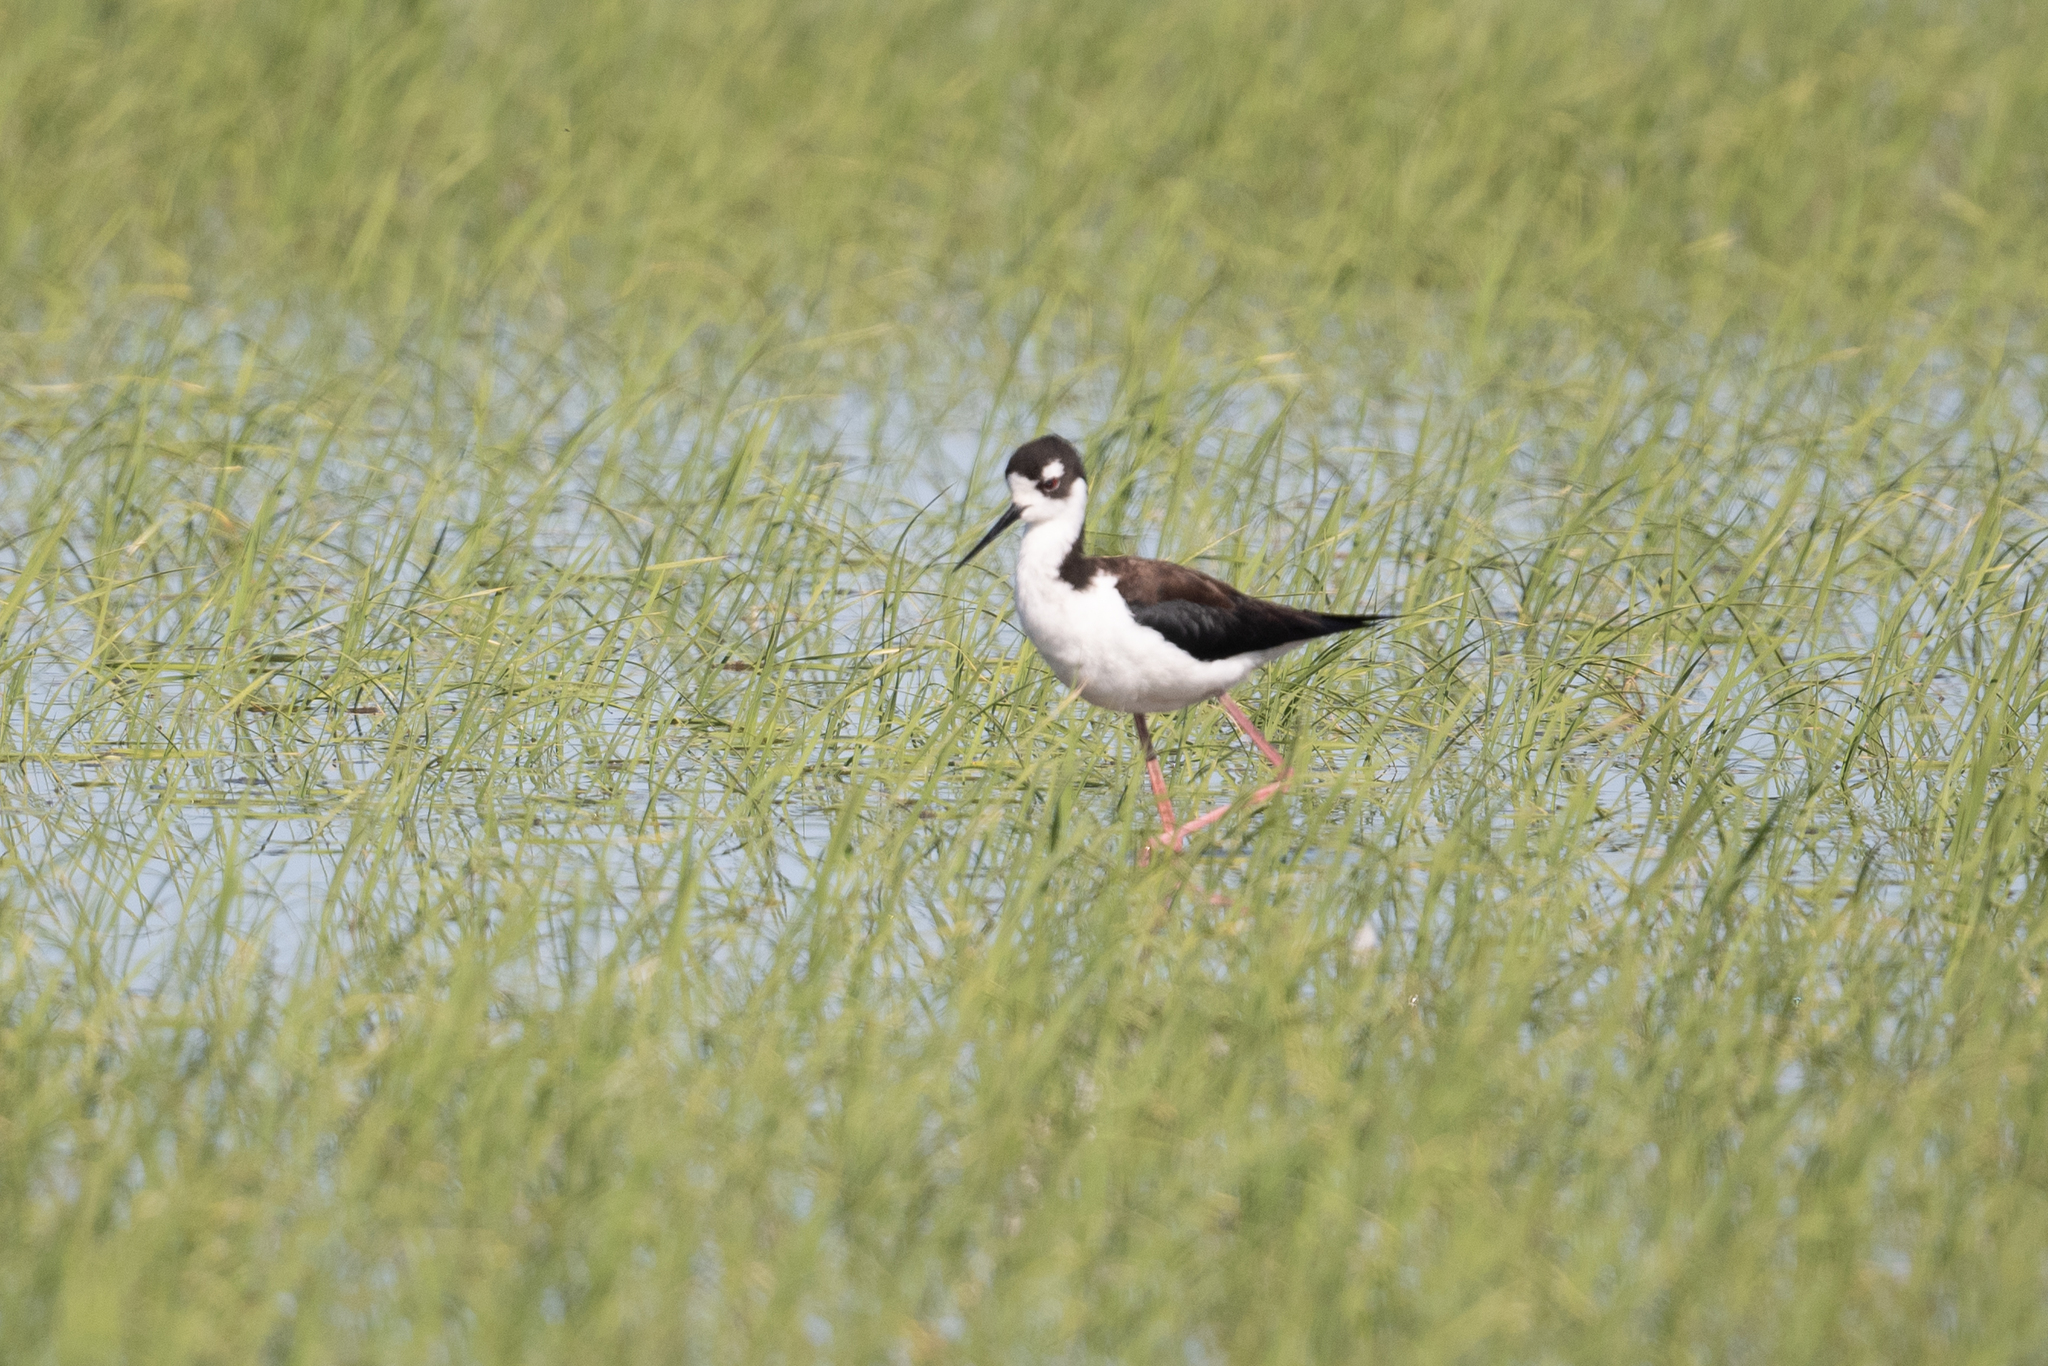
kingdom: Animalia
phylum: Chordata
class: Aves
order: Charadriiformes
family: Recurvirostridae
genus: Himantopus
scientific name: Himantopus mexicanus
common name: Black-necked stilt
